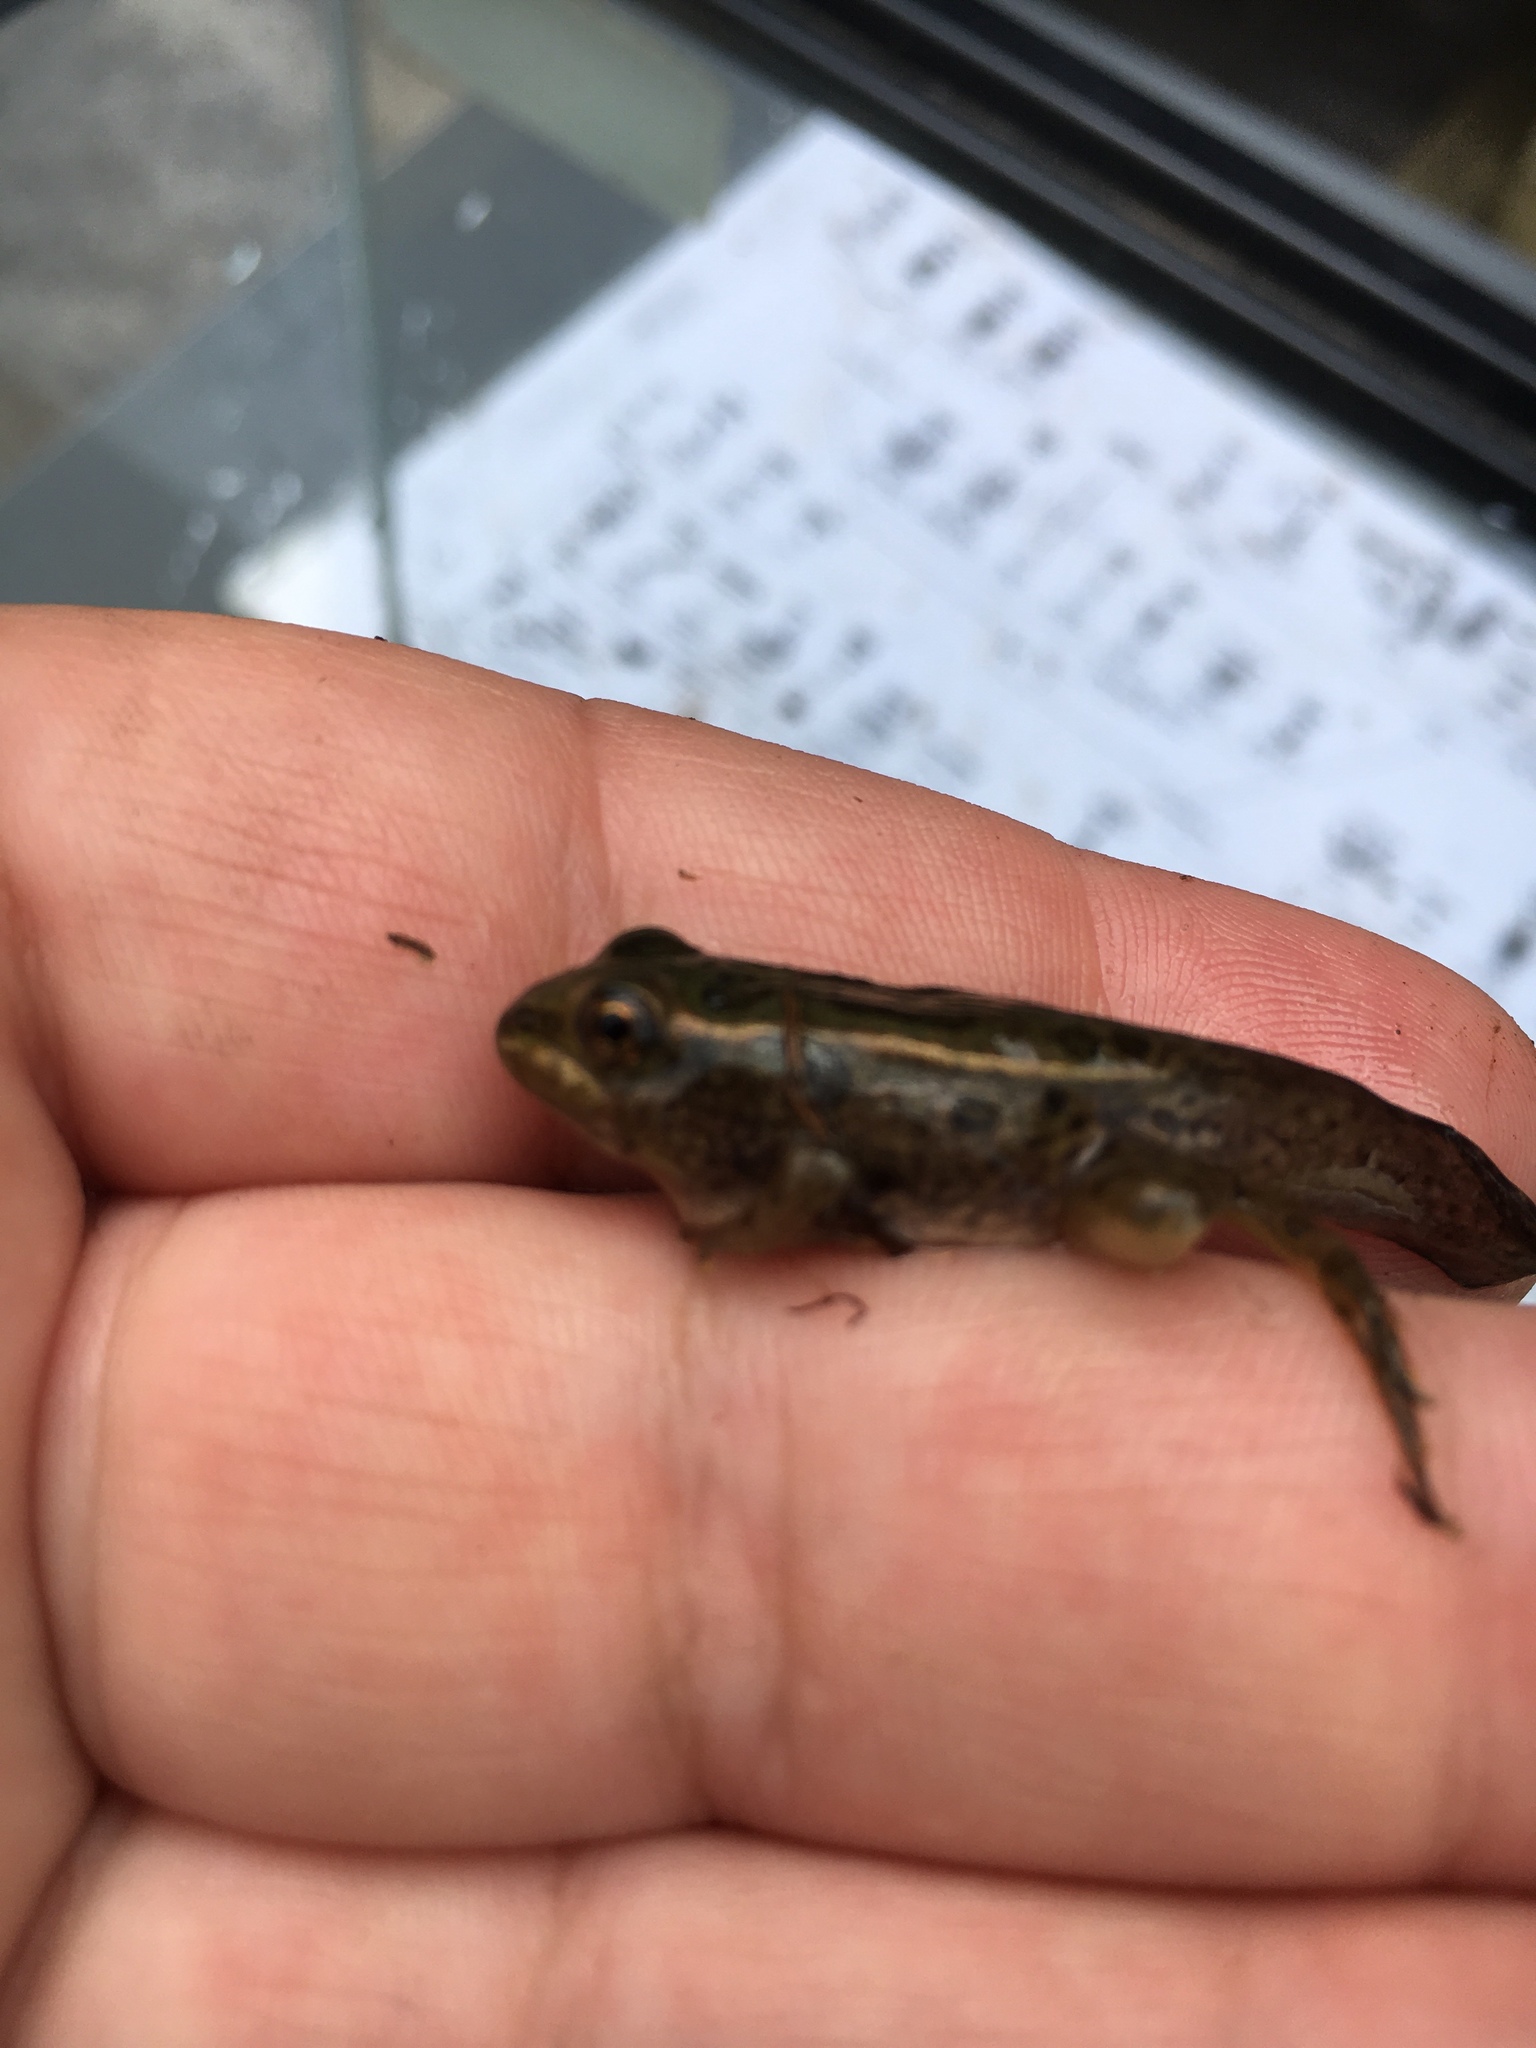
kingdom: Animalia
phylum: Chordata
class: Amphibia
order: Anura
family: Ranidae
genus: Lithobates
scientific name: Lithobates pipiens
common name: Northern leopard frog
